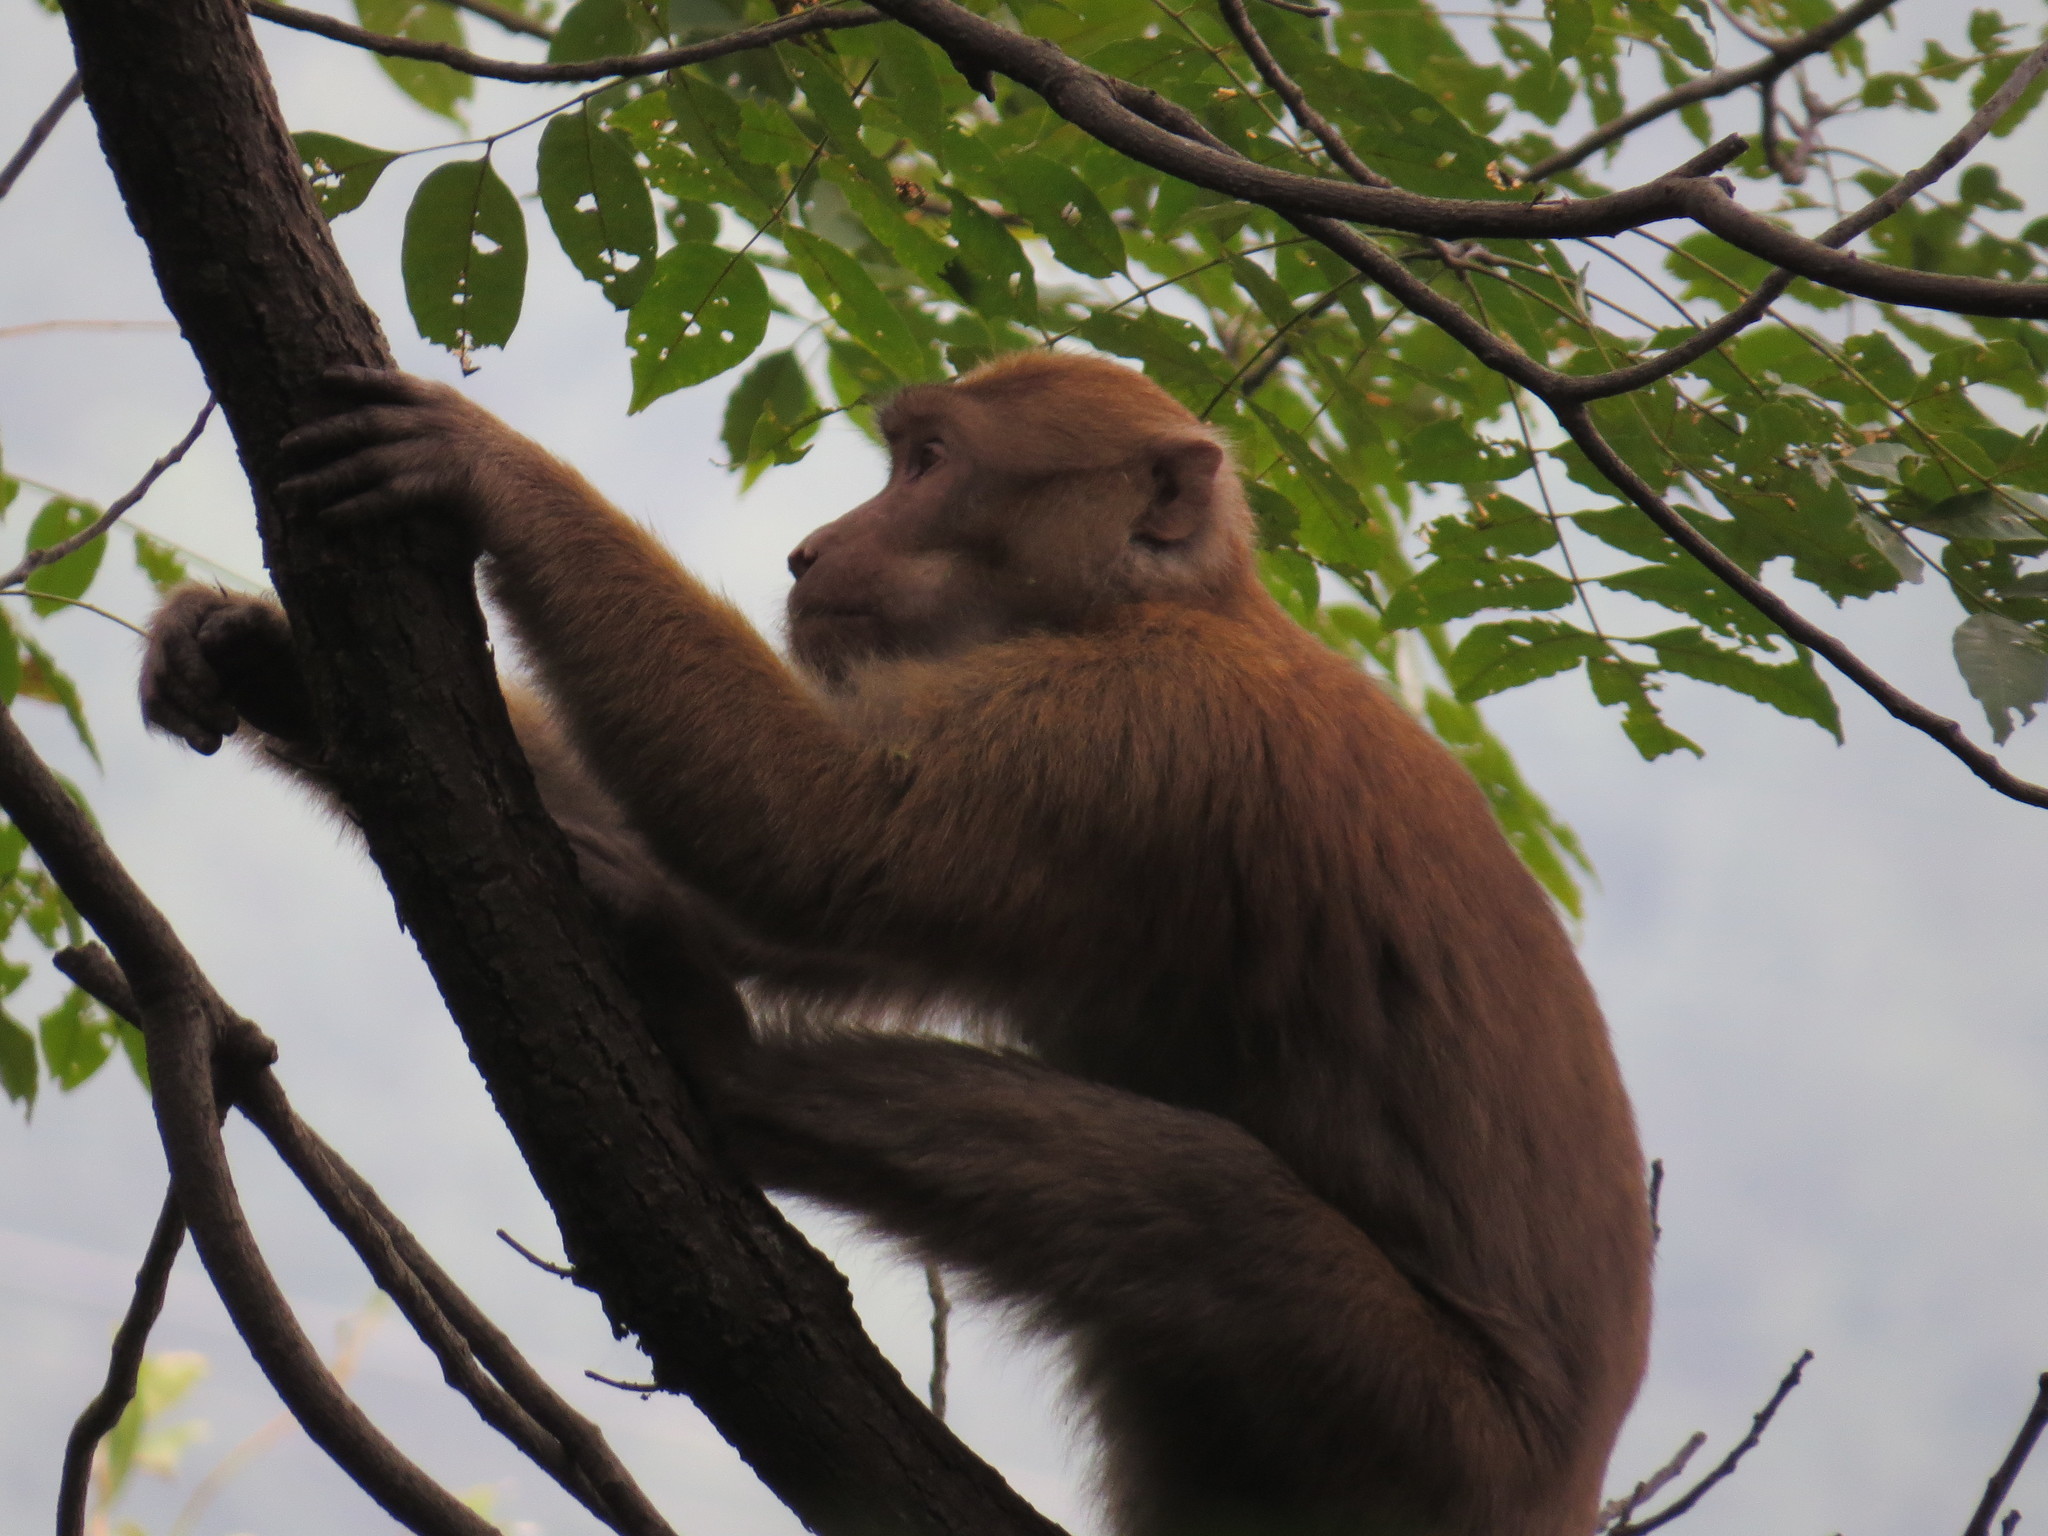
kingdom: Animalia
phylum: Chordata
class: Mammalia
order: Primates
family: Cercopithecidae
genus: Macaca
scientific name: Macaca assamensis
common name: Assam macaque
